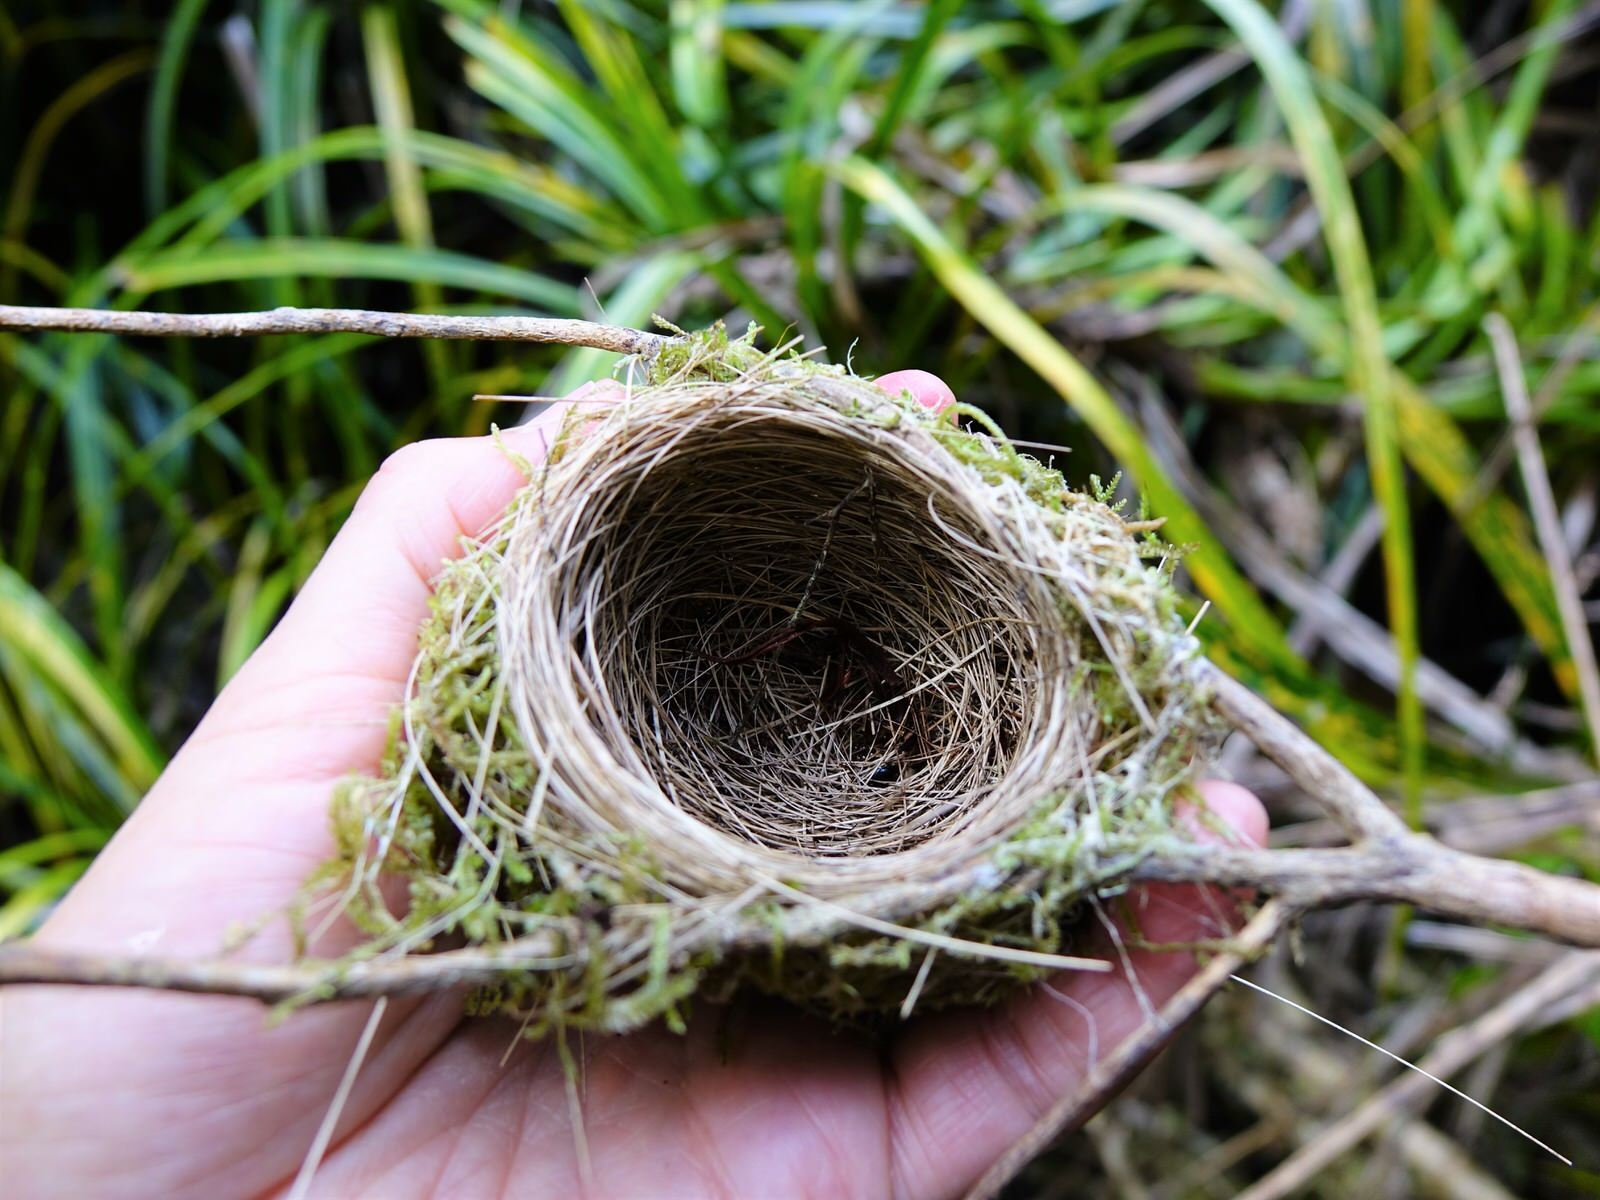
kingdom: Animalia
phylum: Chordata
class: Aves
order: Passeriformes
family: Zosteropidae
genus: Zosterops
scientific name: Zosterops lateralis
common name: Silvereye
